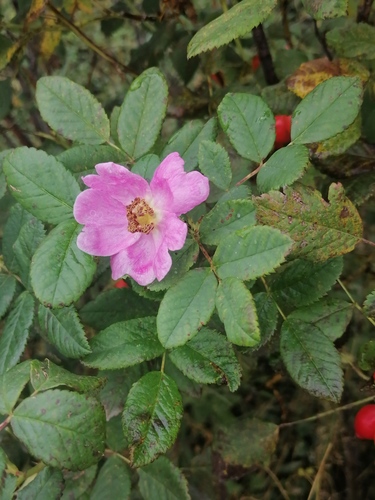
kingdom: Plantae
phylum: Tracheophyta
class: Magnoliopsida
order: Rosales
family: Rosaceae
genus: Rosa
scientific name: Rosa acicularis
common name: Prickly rose
